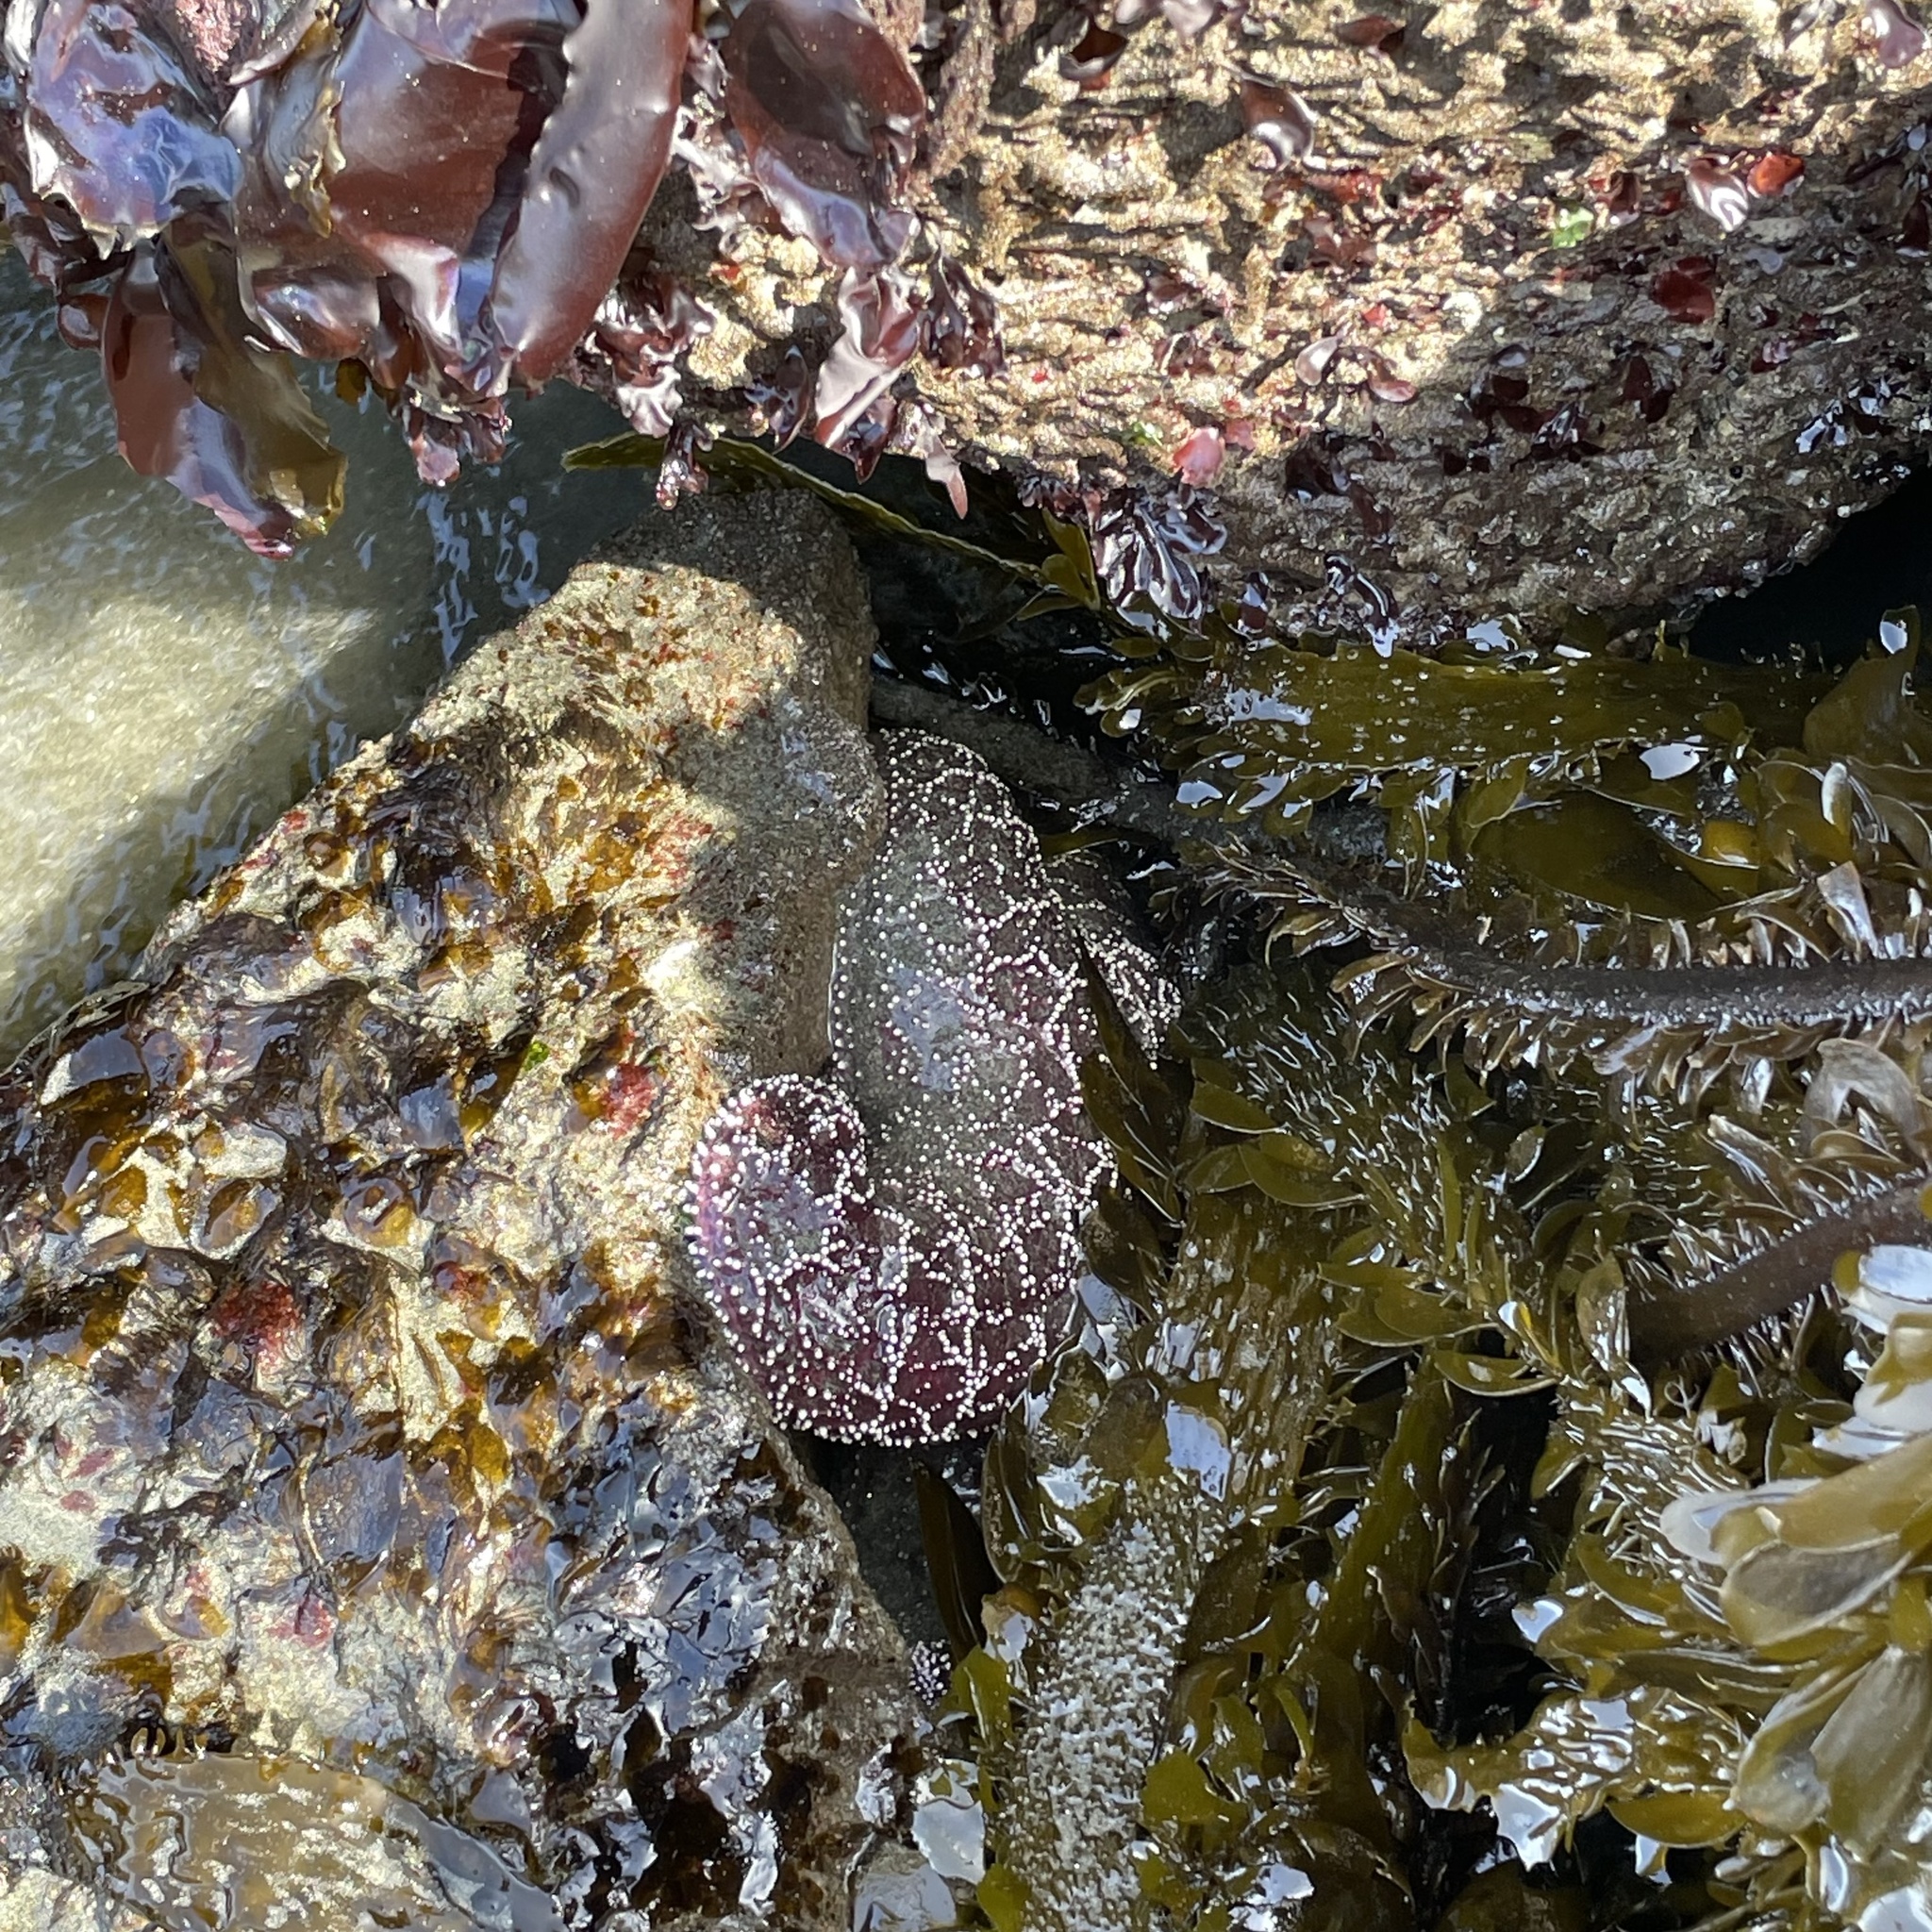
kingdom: Animalia
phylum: Echinodermata
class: Asteroidea
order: Forcipulatida
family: Asteriidae
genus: Pisaster
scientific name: Pisaster ochraceus
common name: Ochre stars
